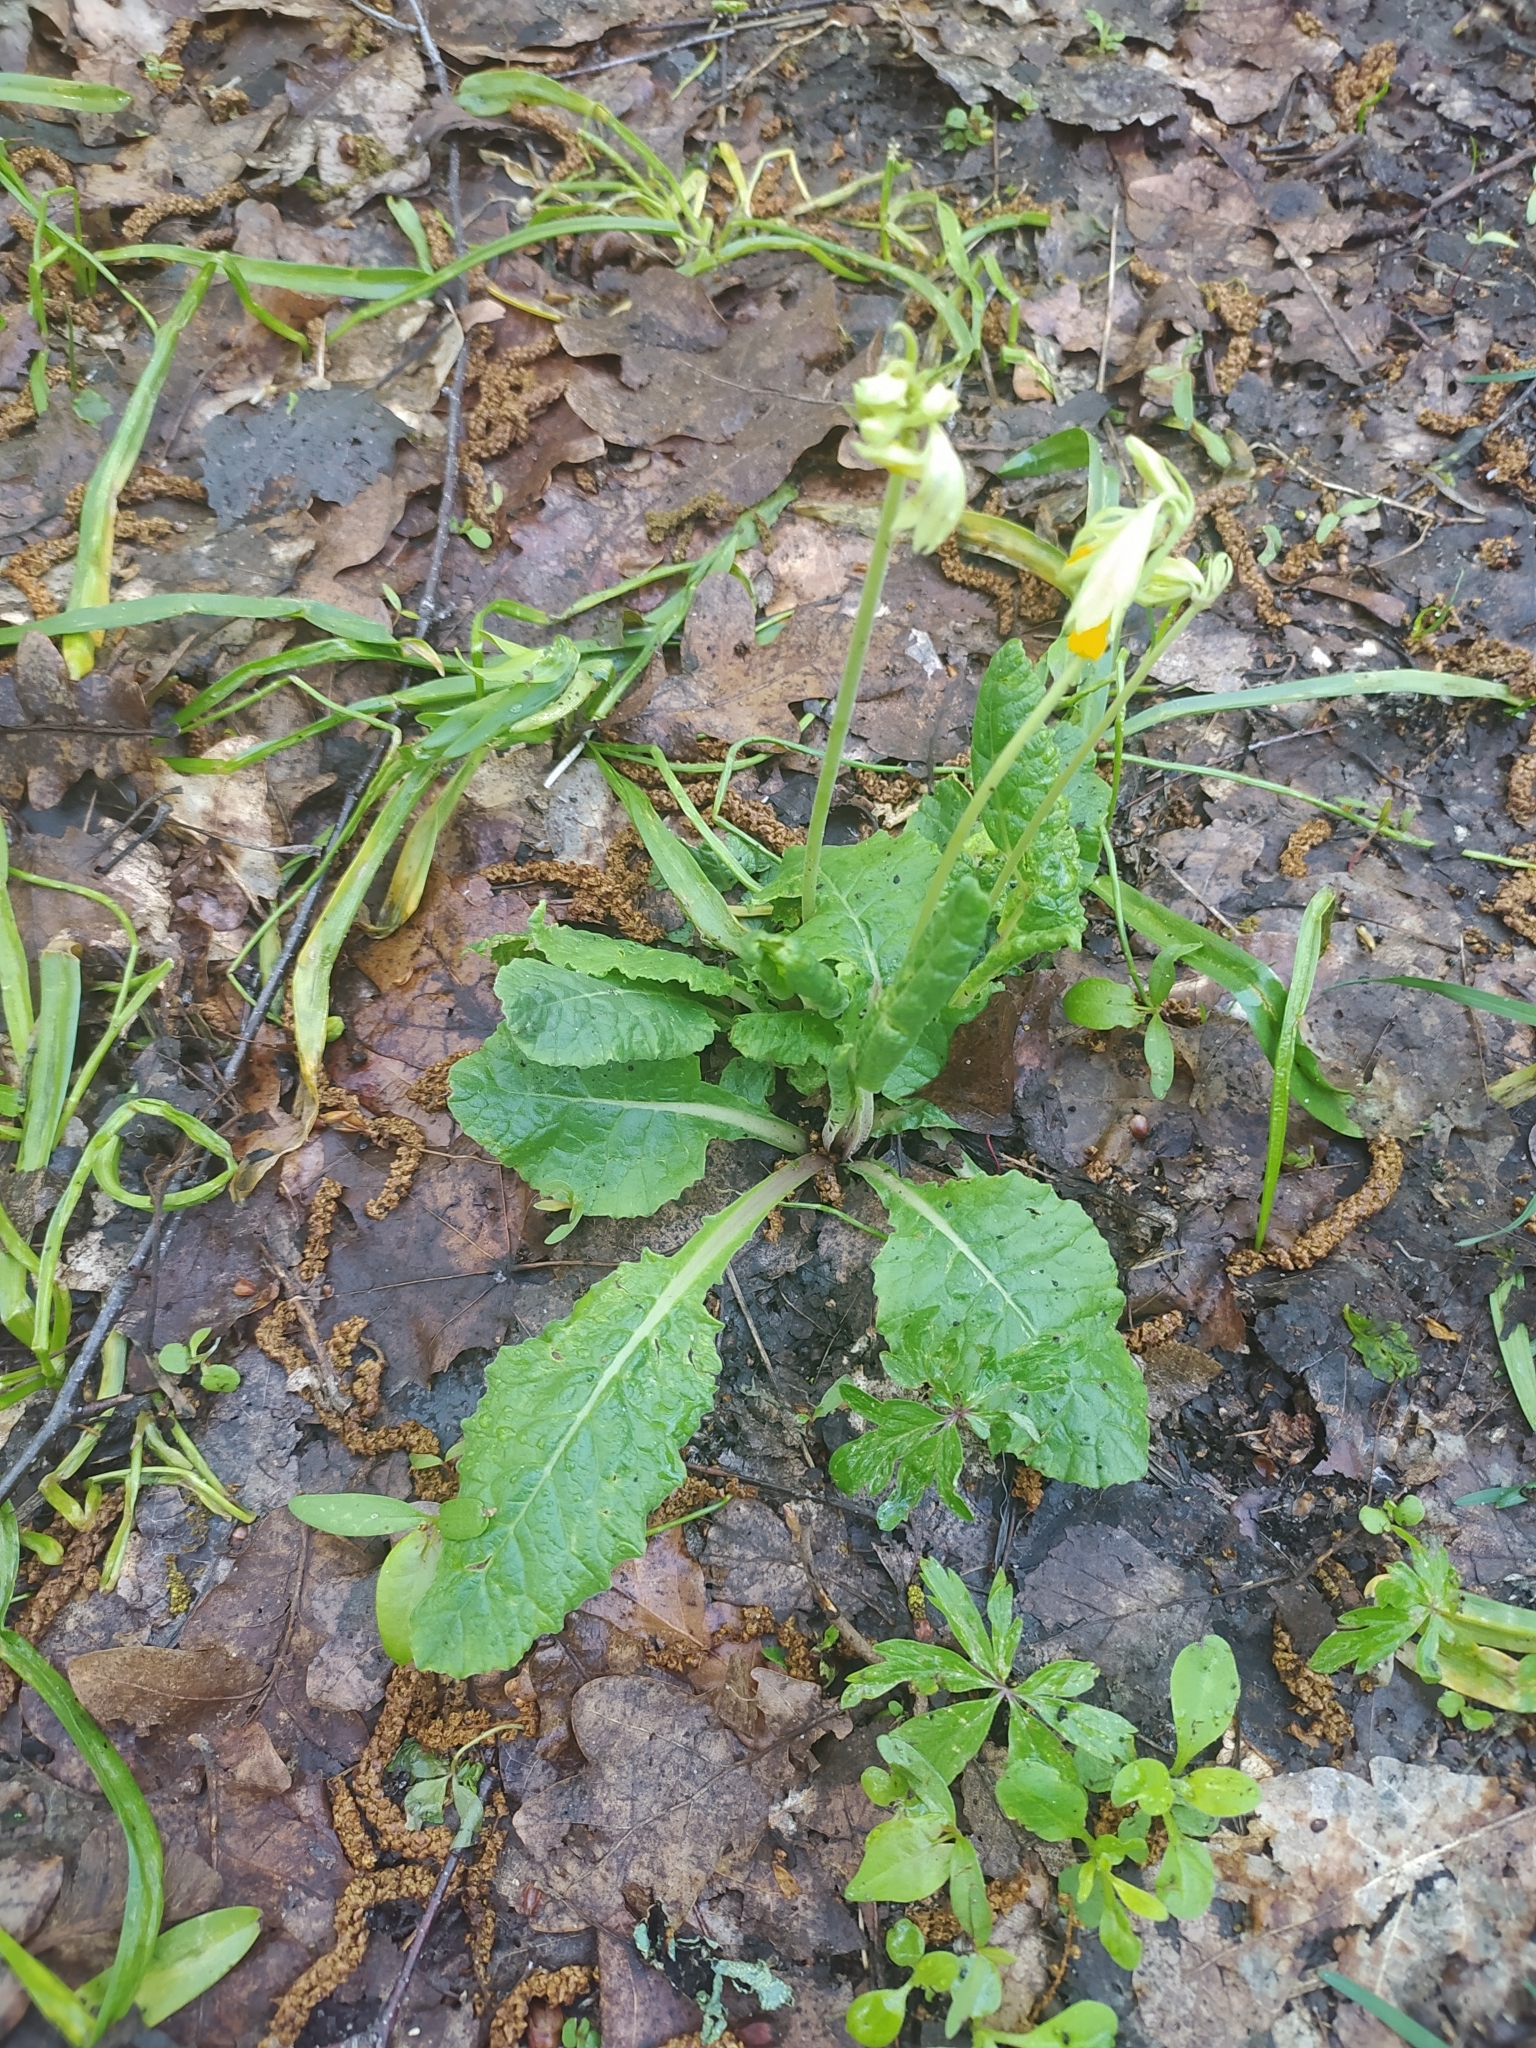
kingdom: Plantae
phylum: Tracheophyta
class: Magnoliopsida
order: Ericales
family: Primulaceae
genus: Primula
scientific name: Primula veris
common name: Cowslip
